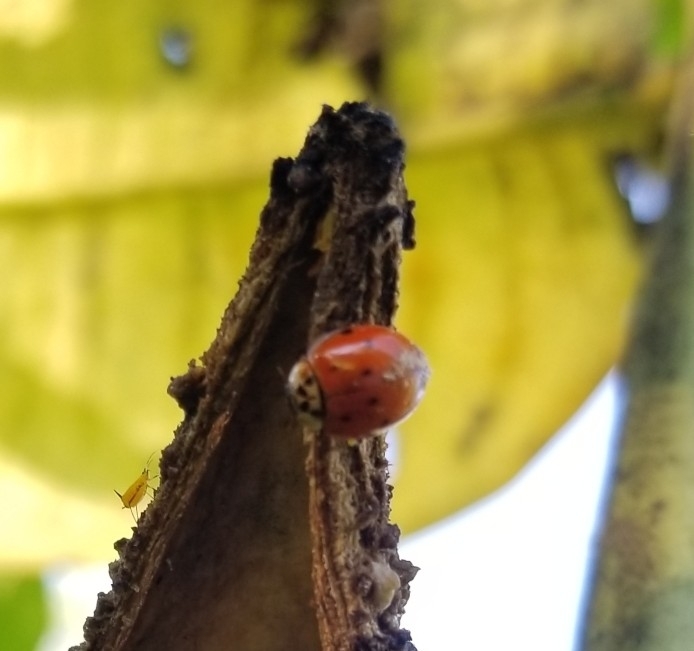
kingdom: Animalia
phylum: Arthropoda
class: Insecta
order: Coleoptera
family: Coccinellidae
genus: Harmonia
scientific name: Harmonia axyridis
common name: Harlequin ladybird
